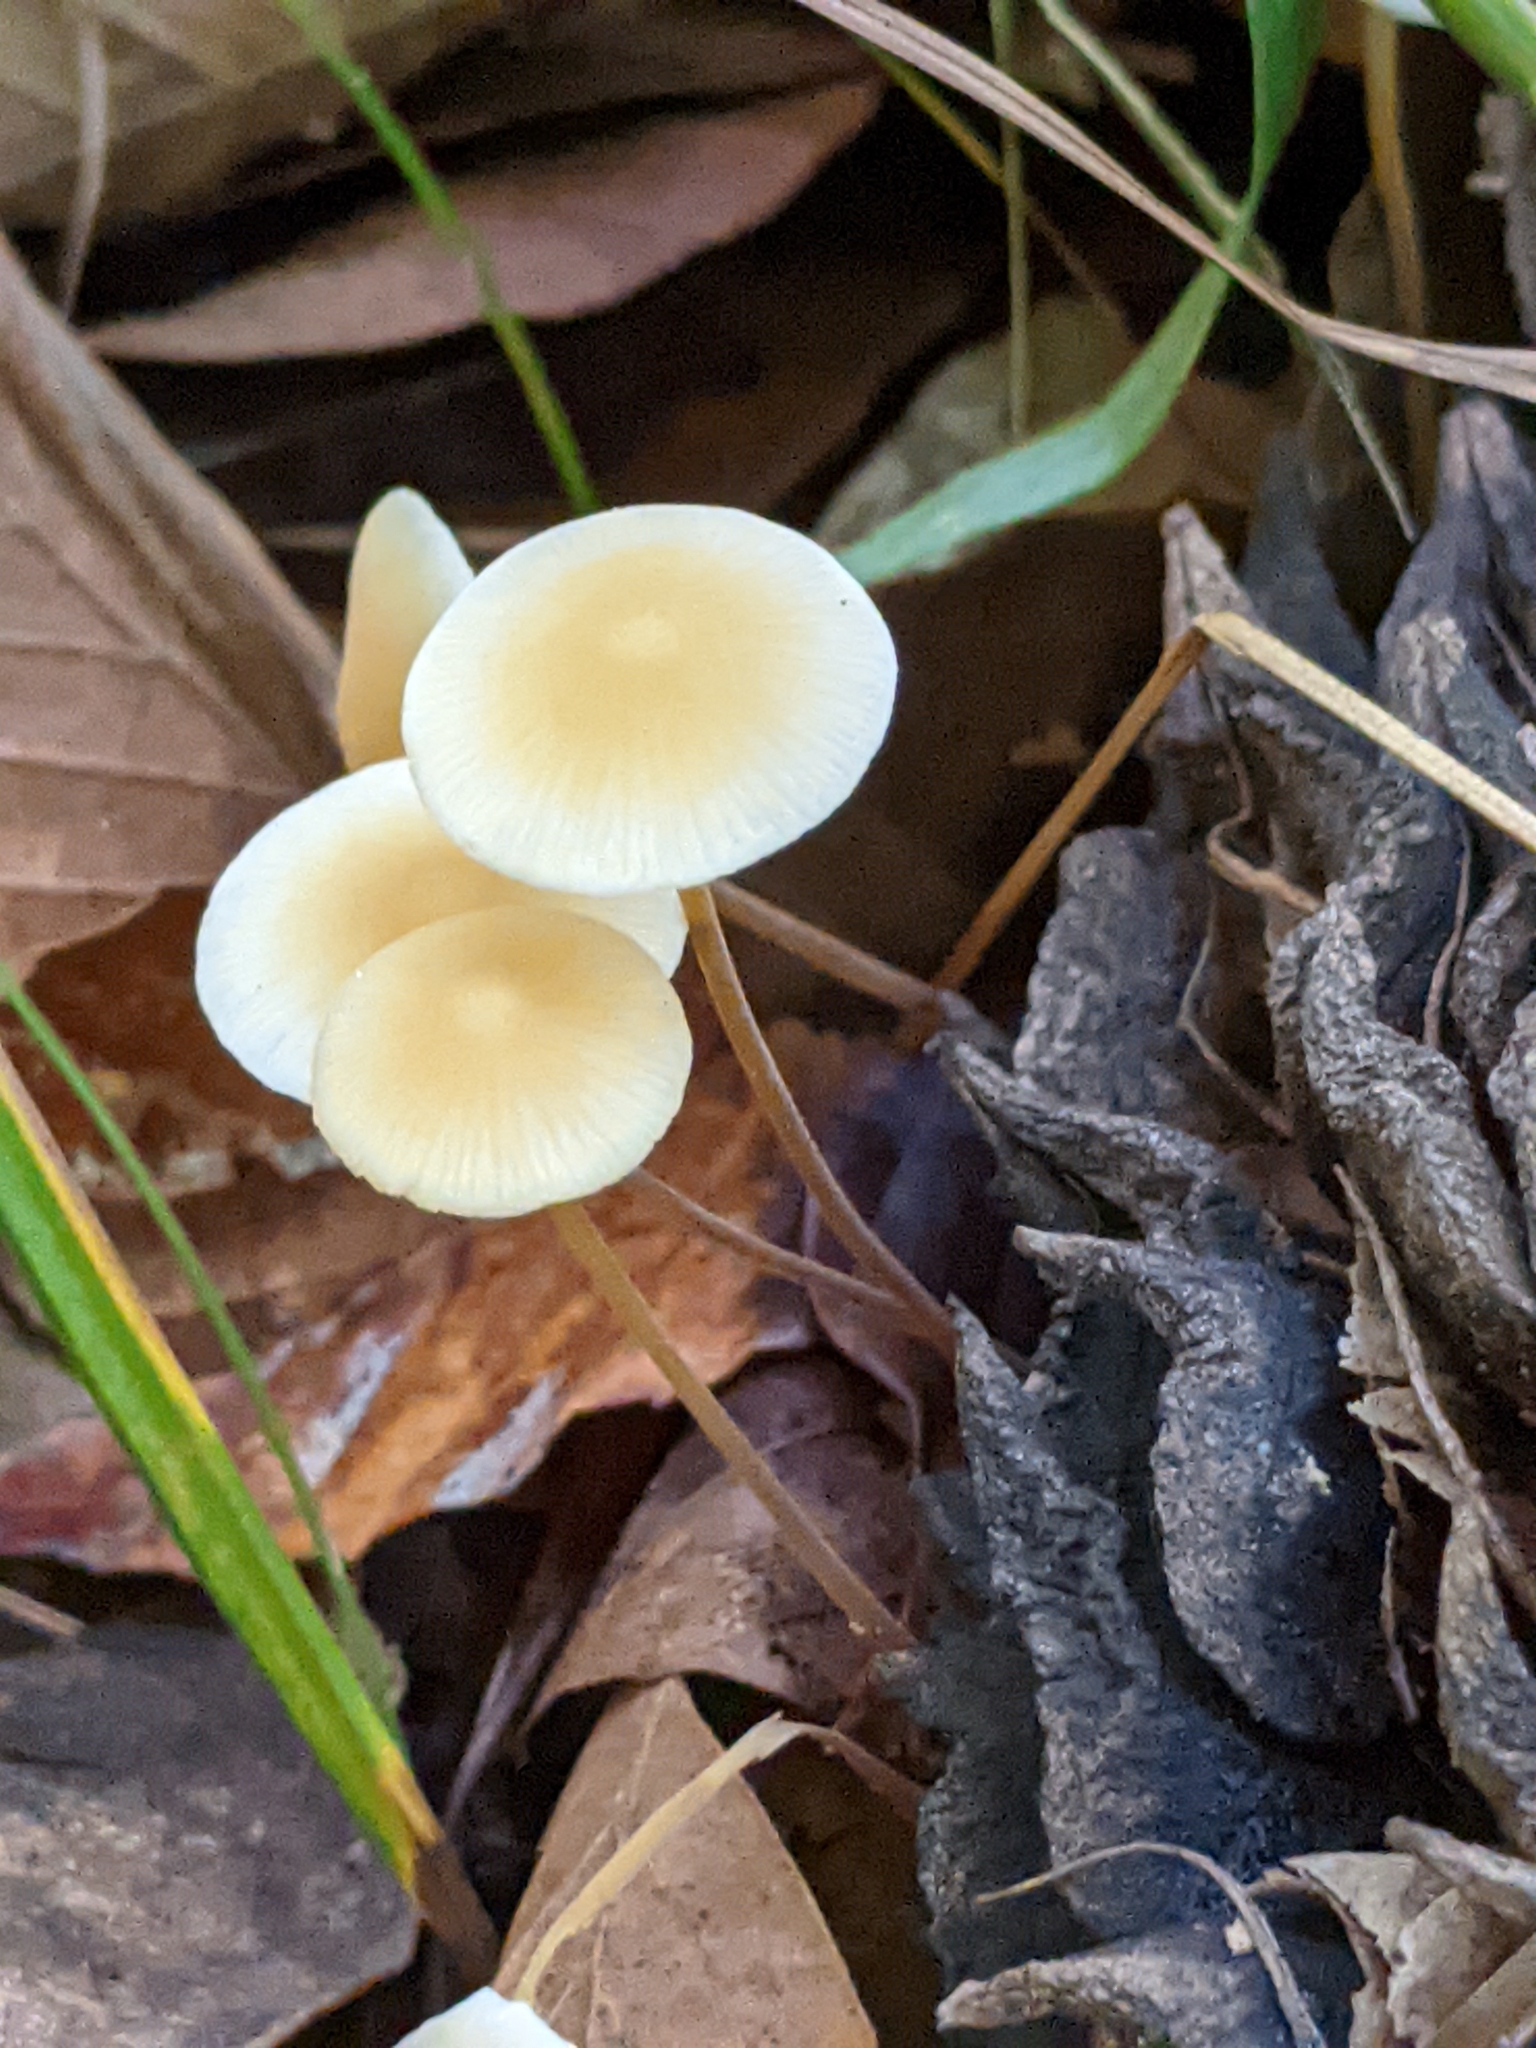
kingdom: Fungi
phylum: Basidiomycota
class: Agaricomycetes
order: Agaricales
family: Physalacriaceae
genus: Strobilurus
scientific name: Strobilurus conigenoides
